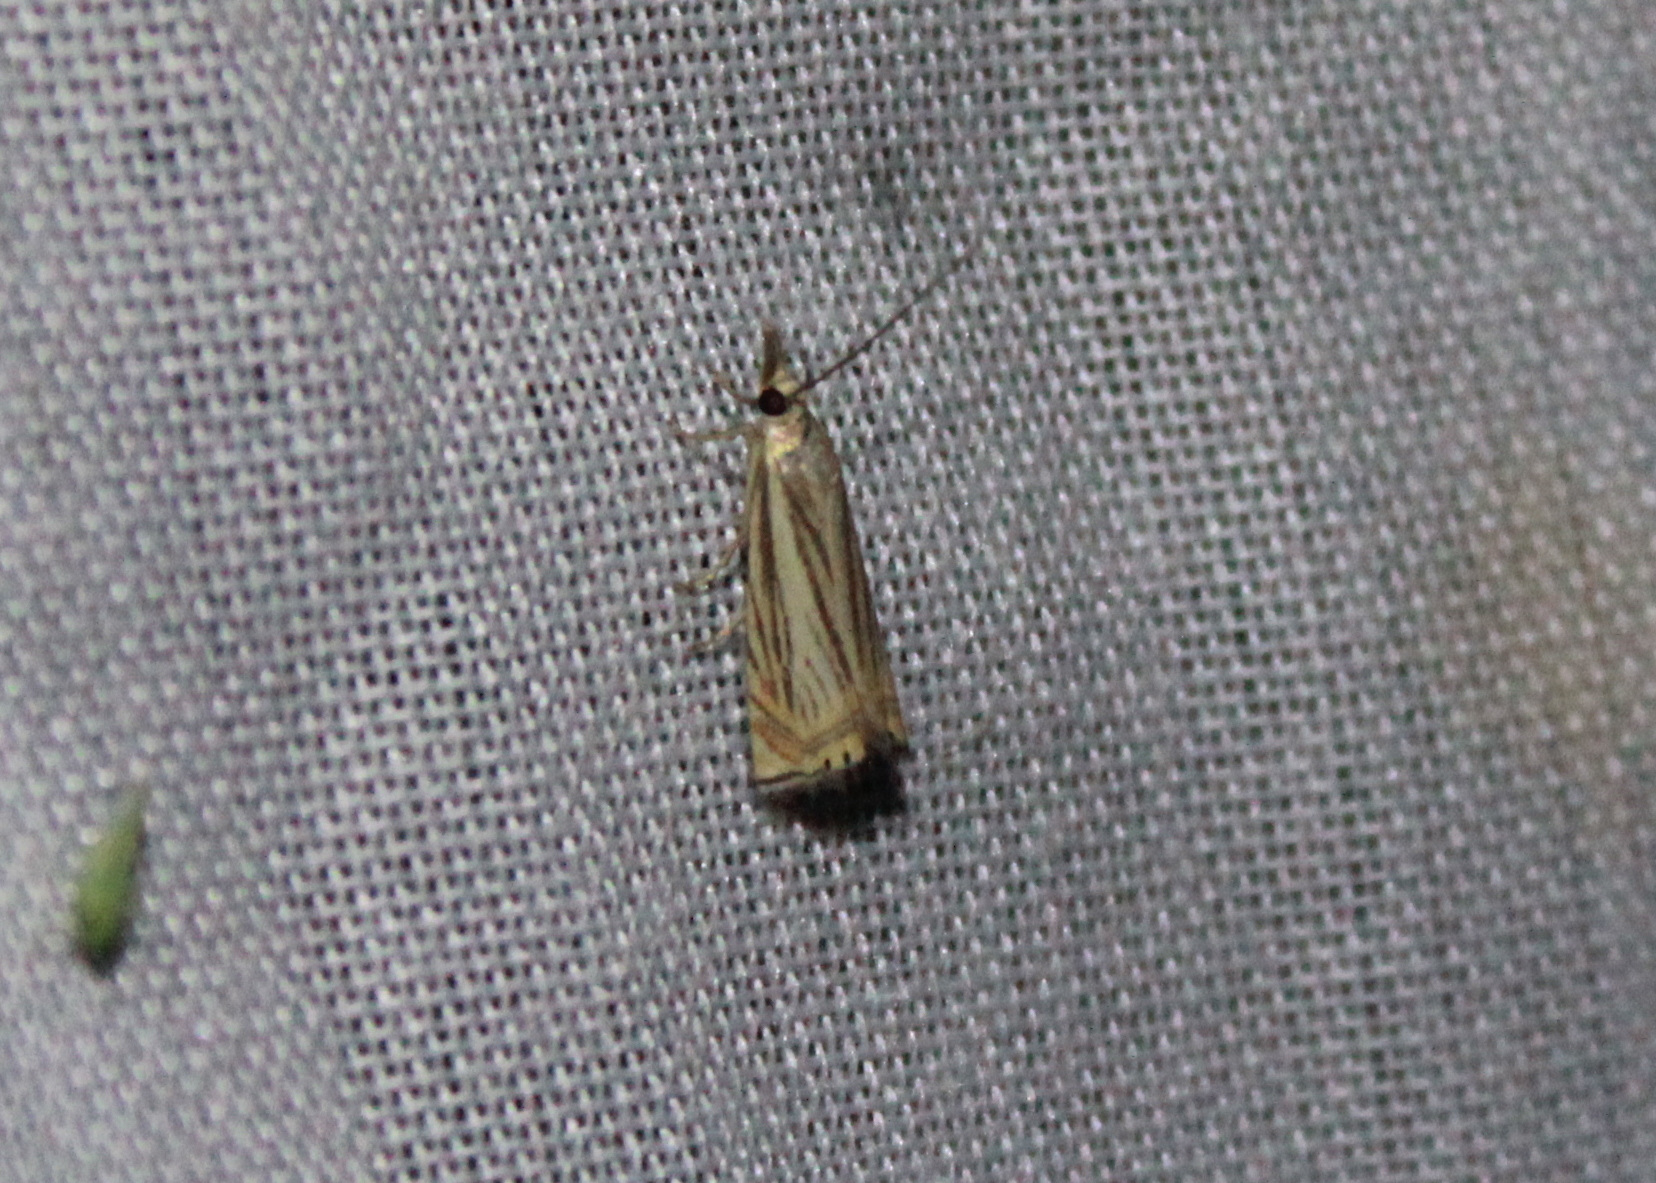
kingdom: Animalia
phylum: Arthropoda
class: Insecta
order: Lepidoptera
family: Crambidae
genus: Chrysoteuchia
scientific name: Chrysoteuchia topiarius
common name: Topiary grass-veneer
